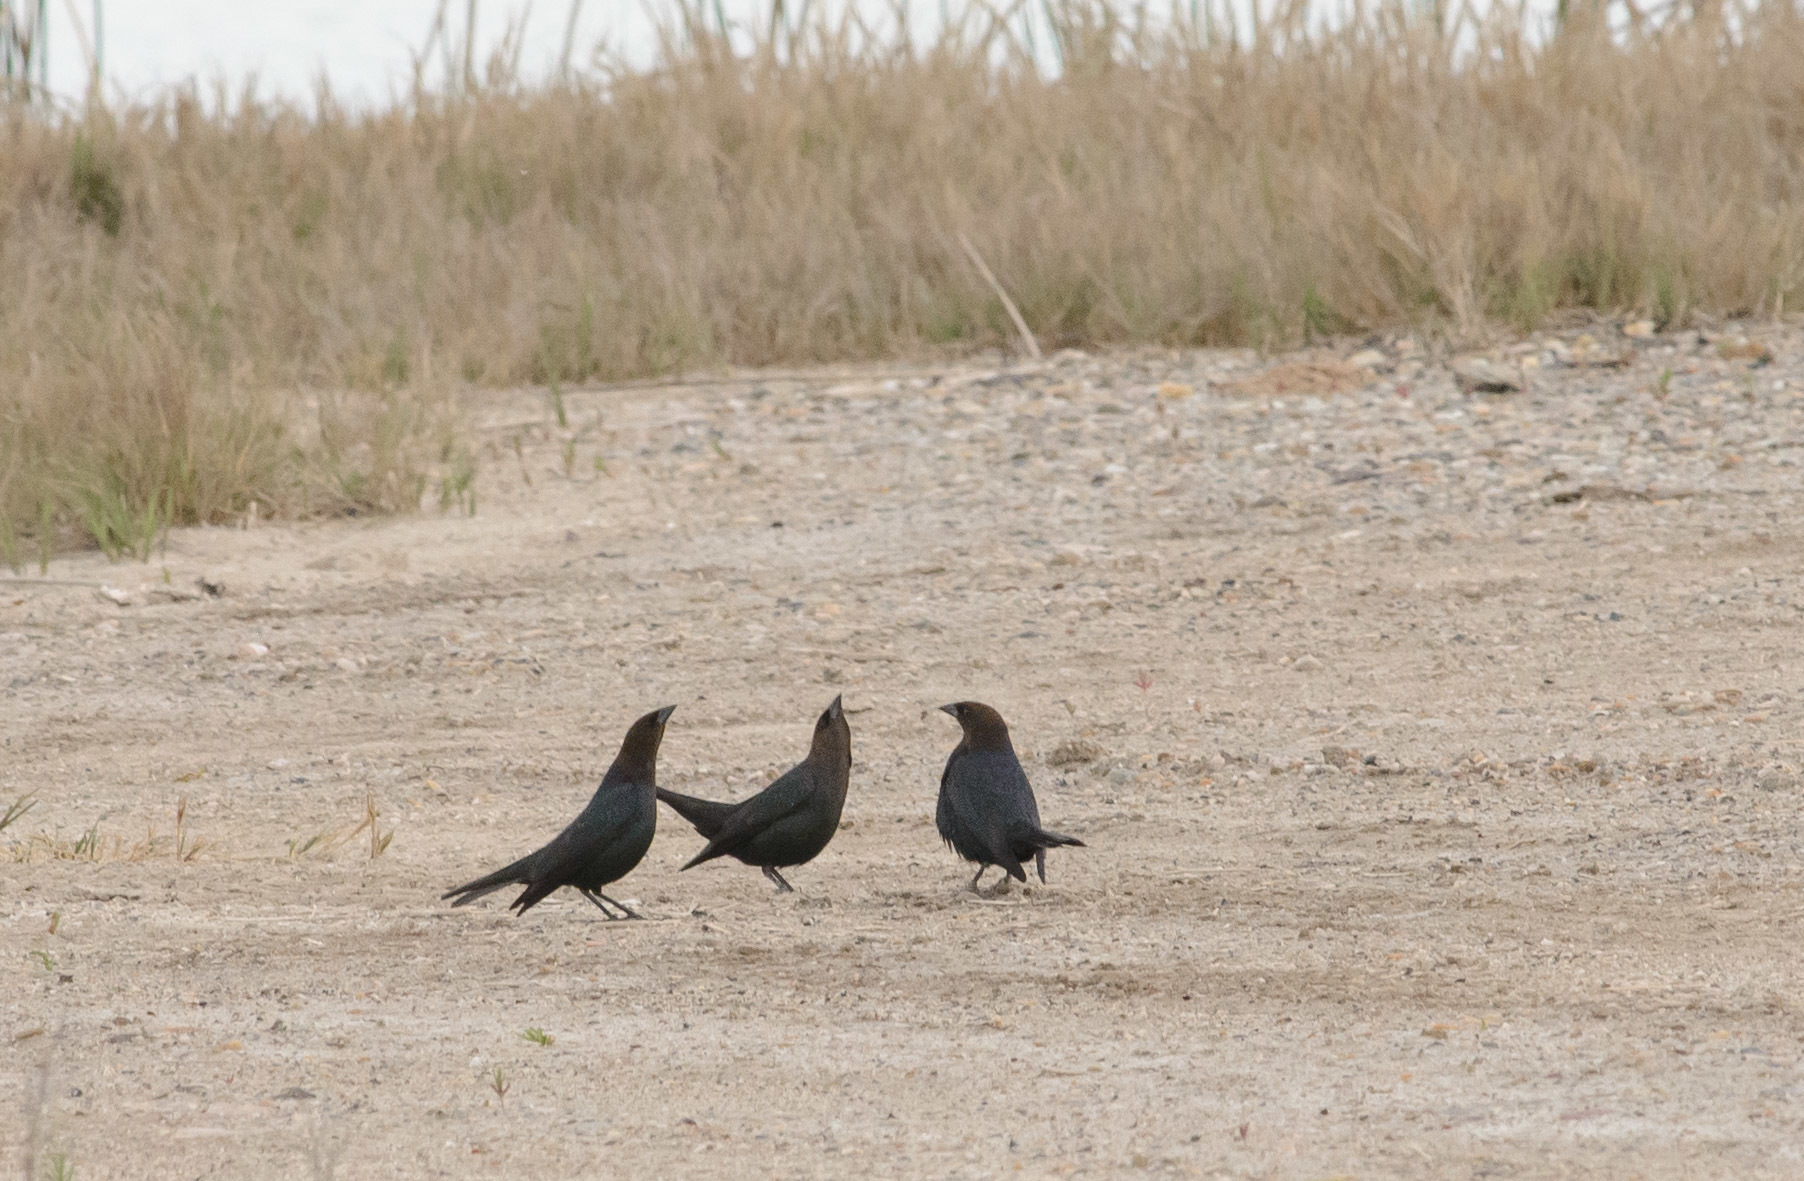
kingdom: Animalia
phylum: Chordata
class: Aves
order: Passeriformes
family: Icteridae
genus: Molothrus
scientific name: Molothrus ater
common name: Brown-headed cowbird
